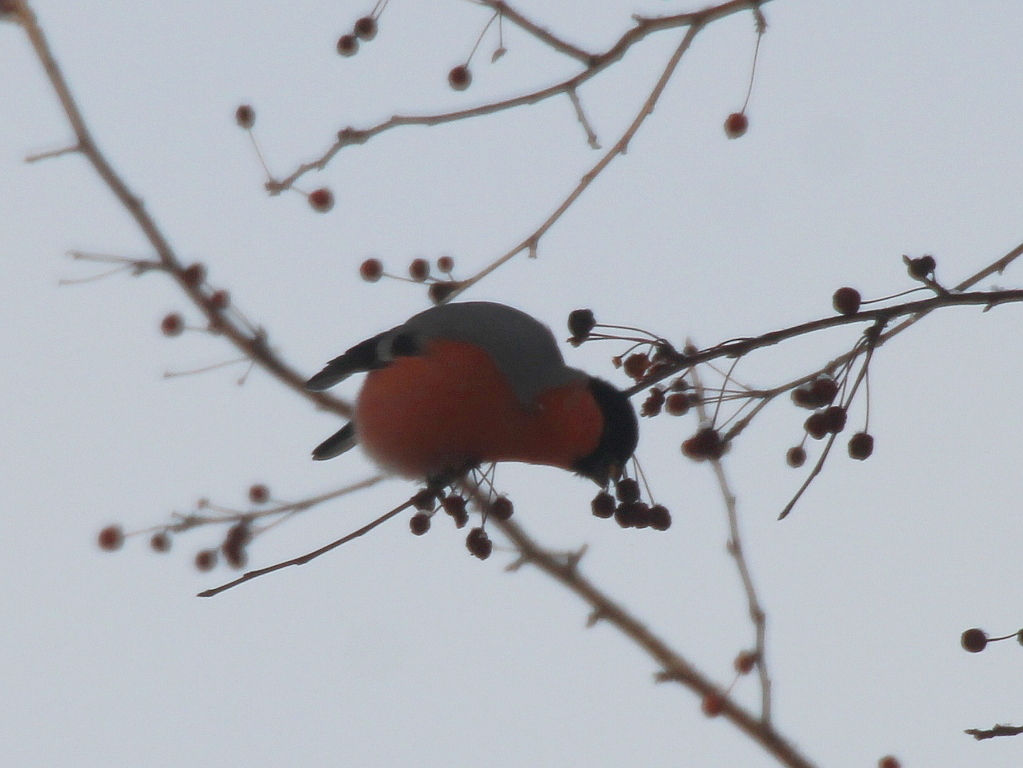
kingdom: Animalia
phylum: Chordata
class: Aves
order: Passeriformes
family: Fringillidae
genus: Pyrrhula
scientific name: Pyrrhula pyrrhula
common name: Eurasian bullfinch
